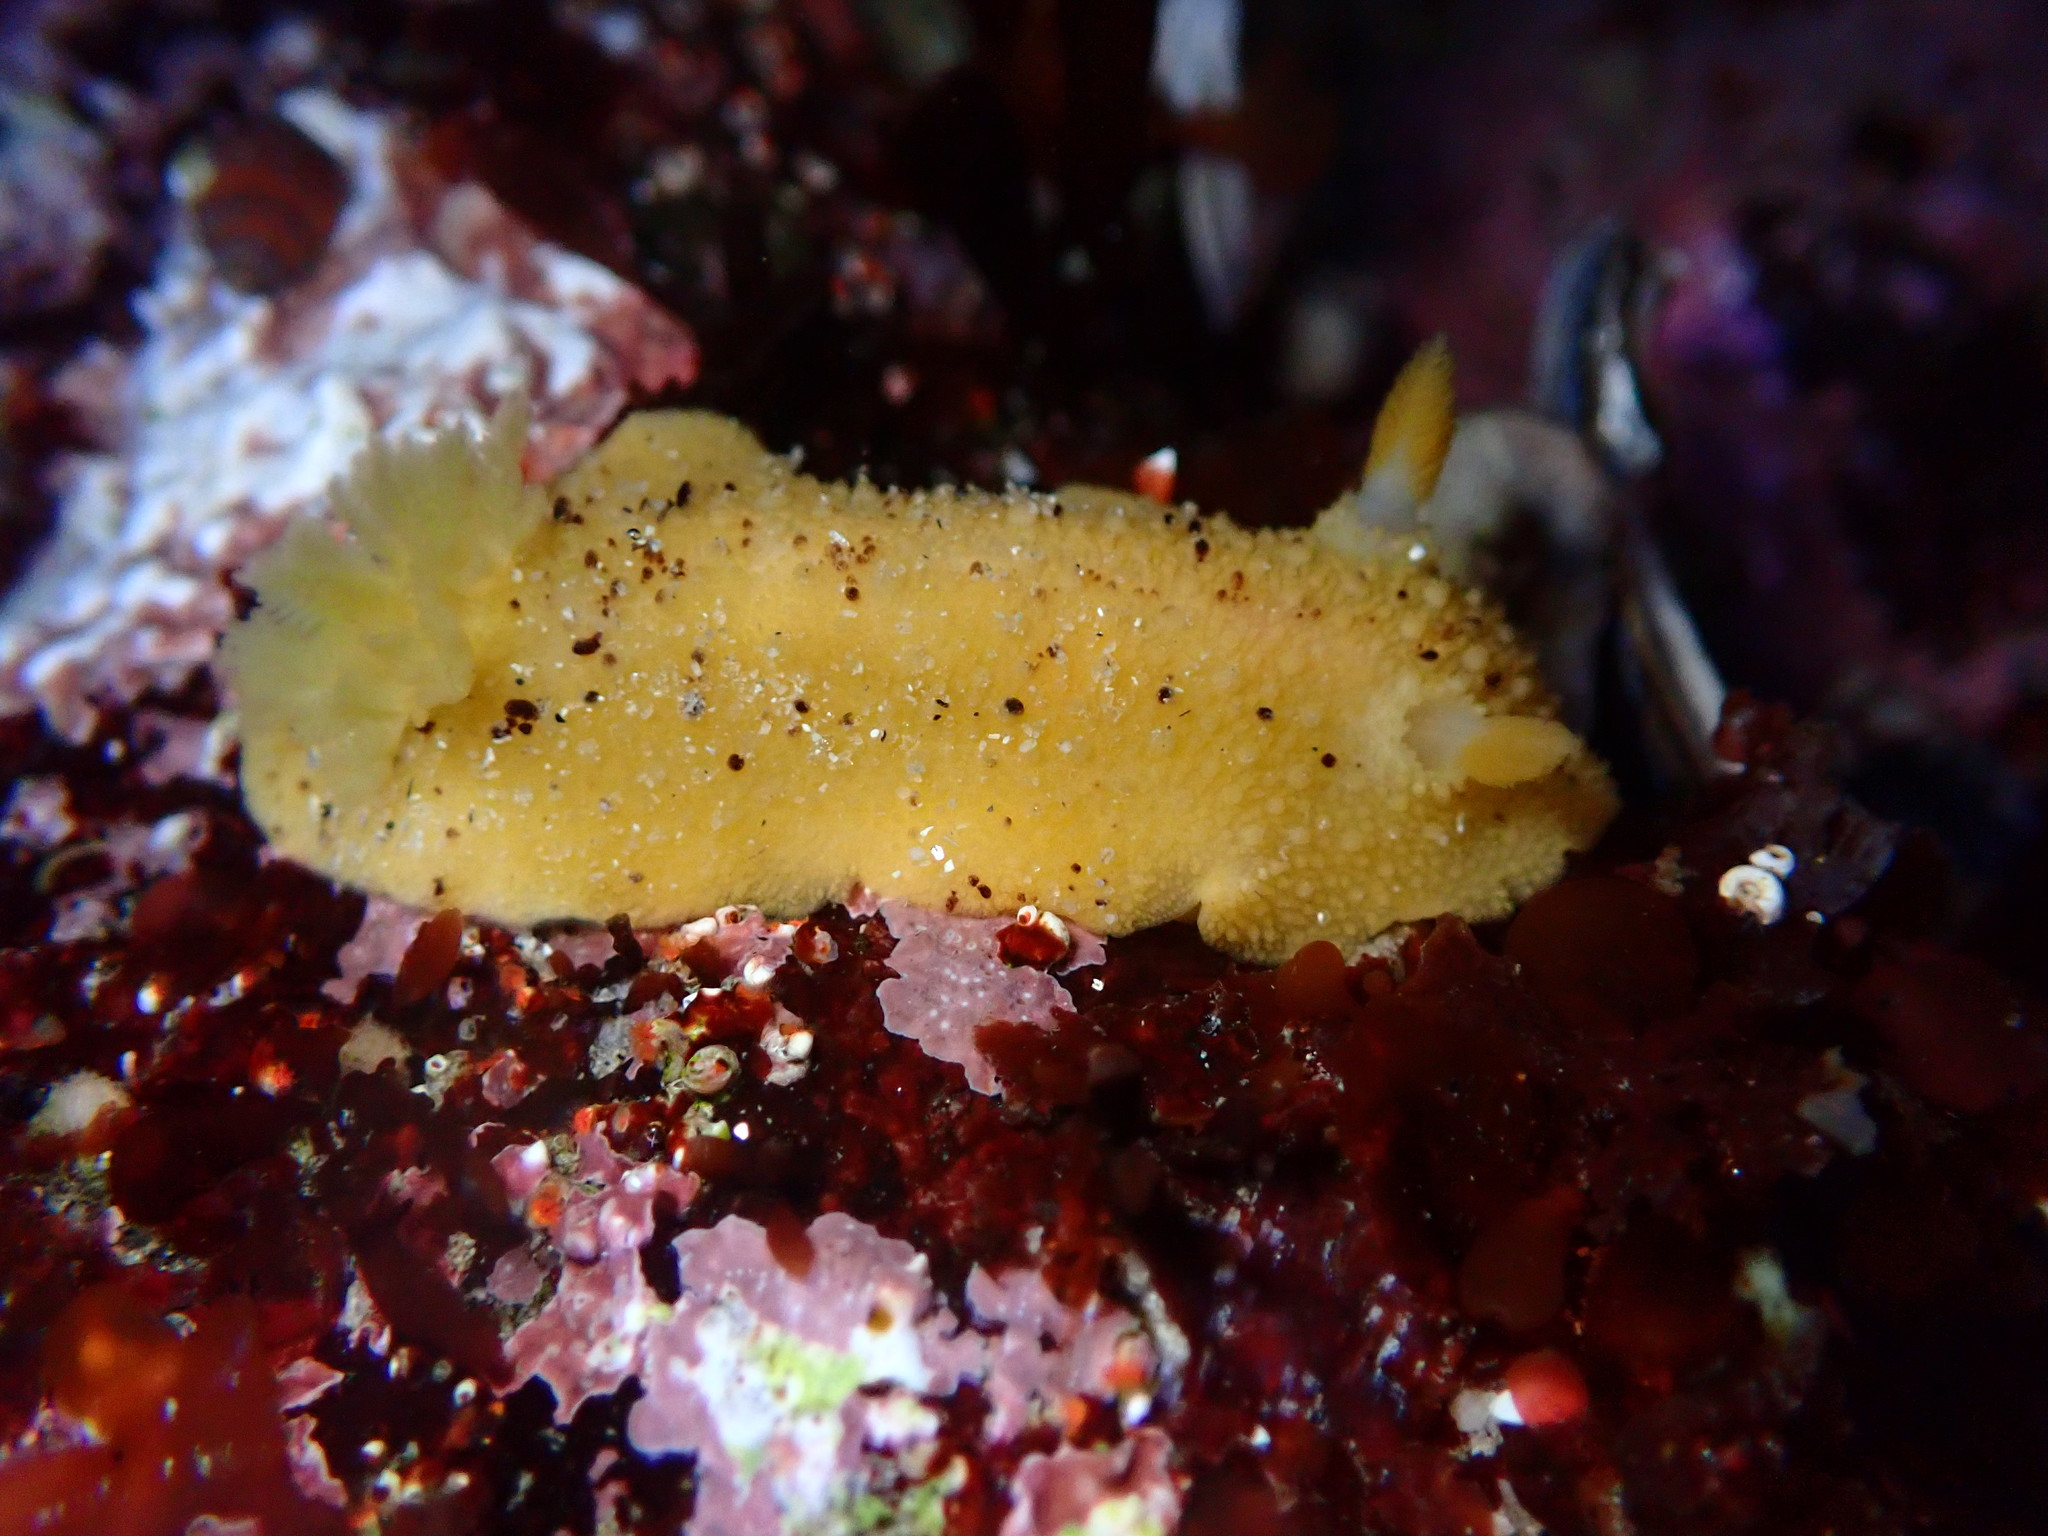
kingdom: Animalia
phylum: Mollusca
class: Gastropoda
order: Nudibranchia
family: Dorididae
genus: Doris
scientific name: Doris montereyensis
